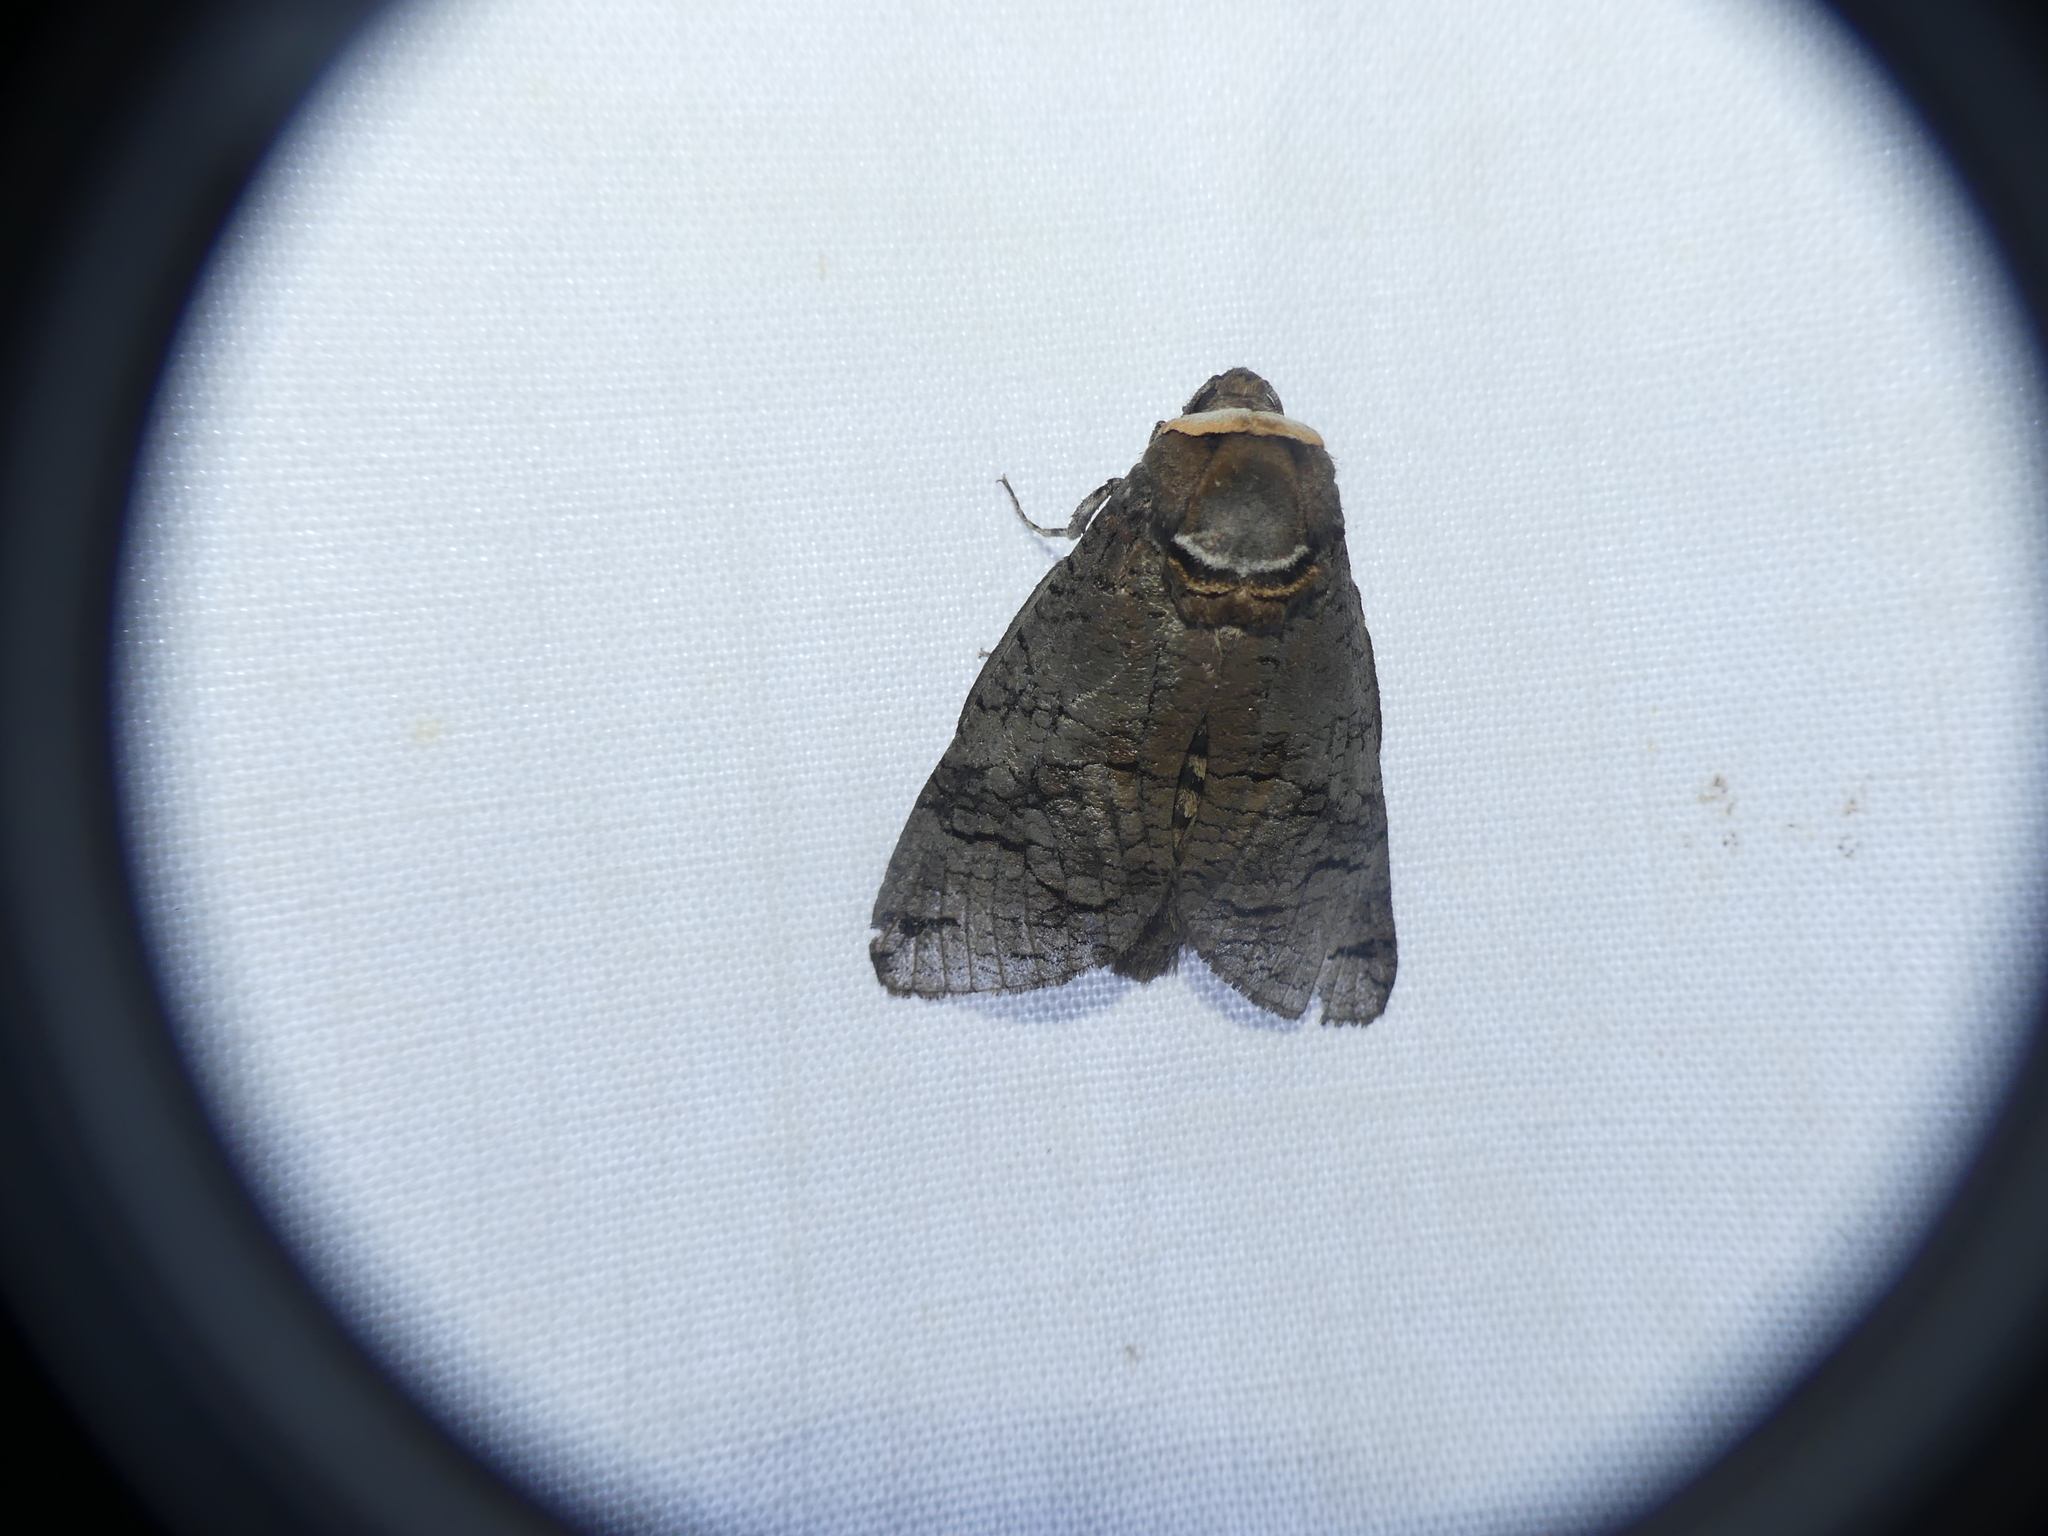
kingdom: Animalia
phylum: Arthropoda
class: Insecta
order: Lepidoptera
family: Cossidae
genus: Cossus
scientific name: Cossus cossus
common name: Goat moth
